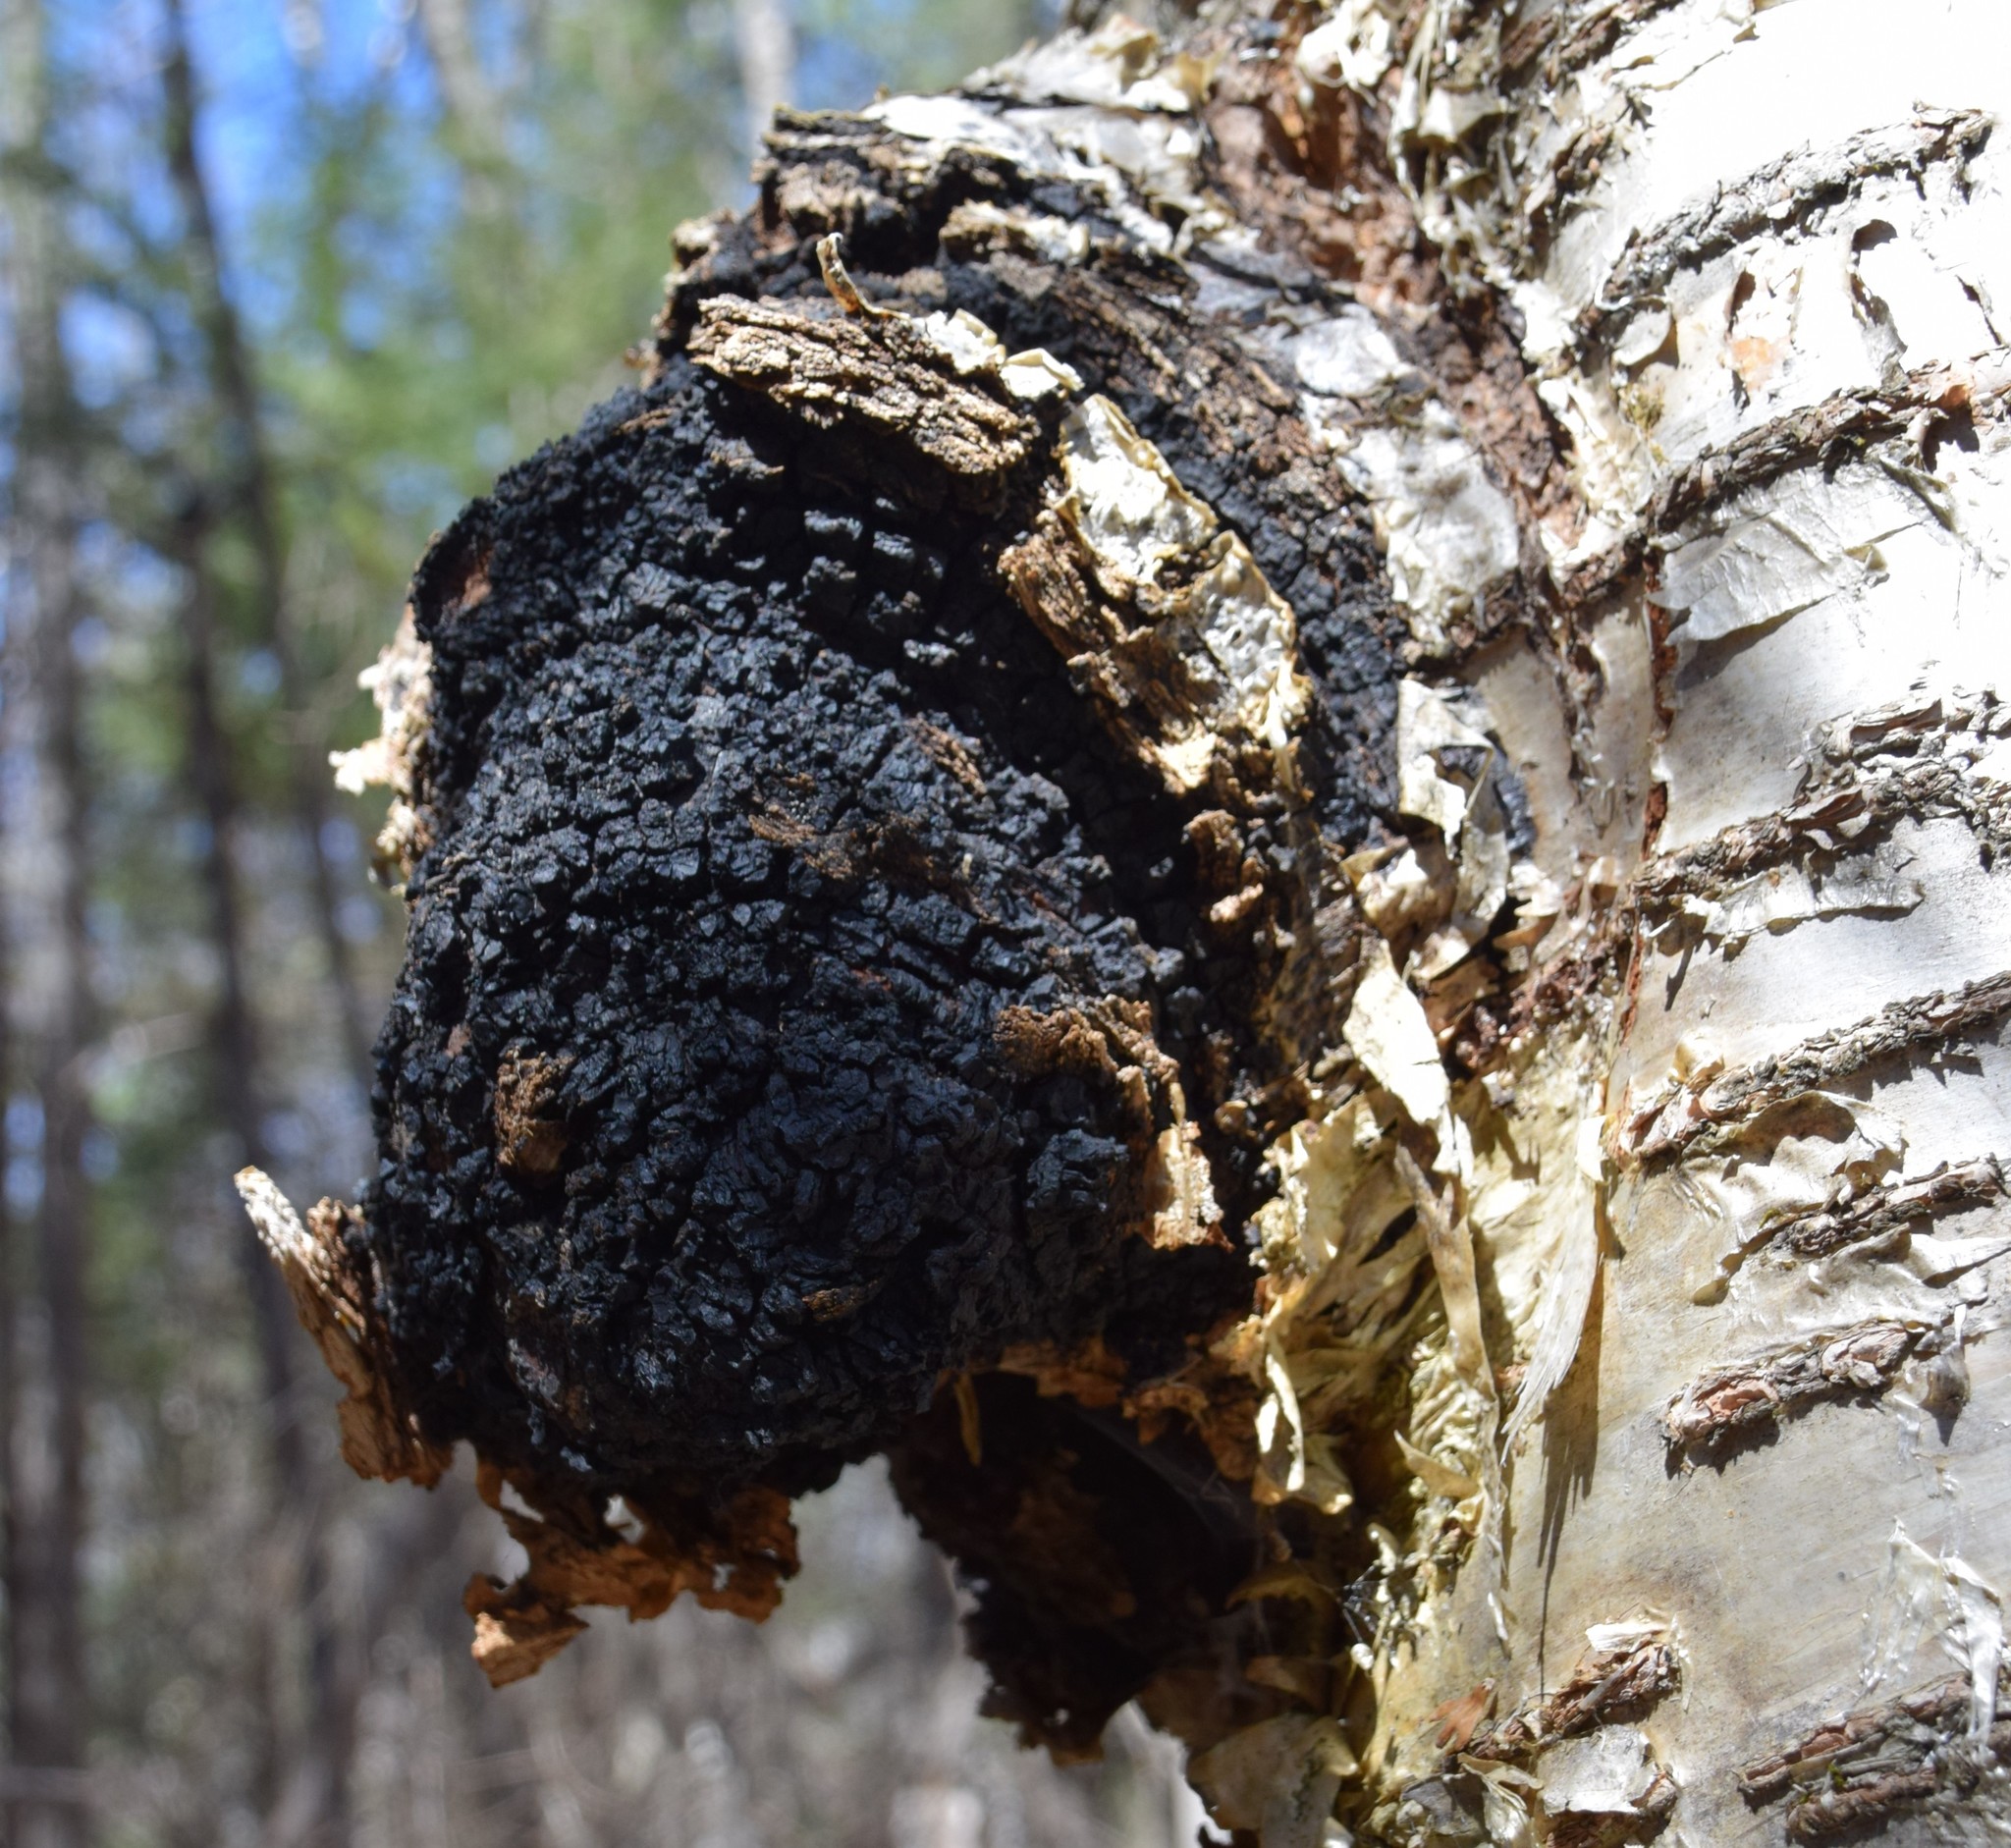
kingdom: Fungi
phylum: Basidiomycota
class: Agaricomycetes
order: Hymenochaetales
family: Hymenochaetaceae
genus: Inonotus
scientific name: Inonotus obliquus
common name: Chaga
